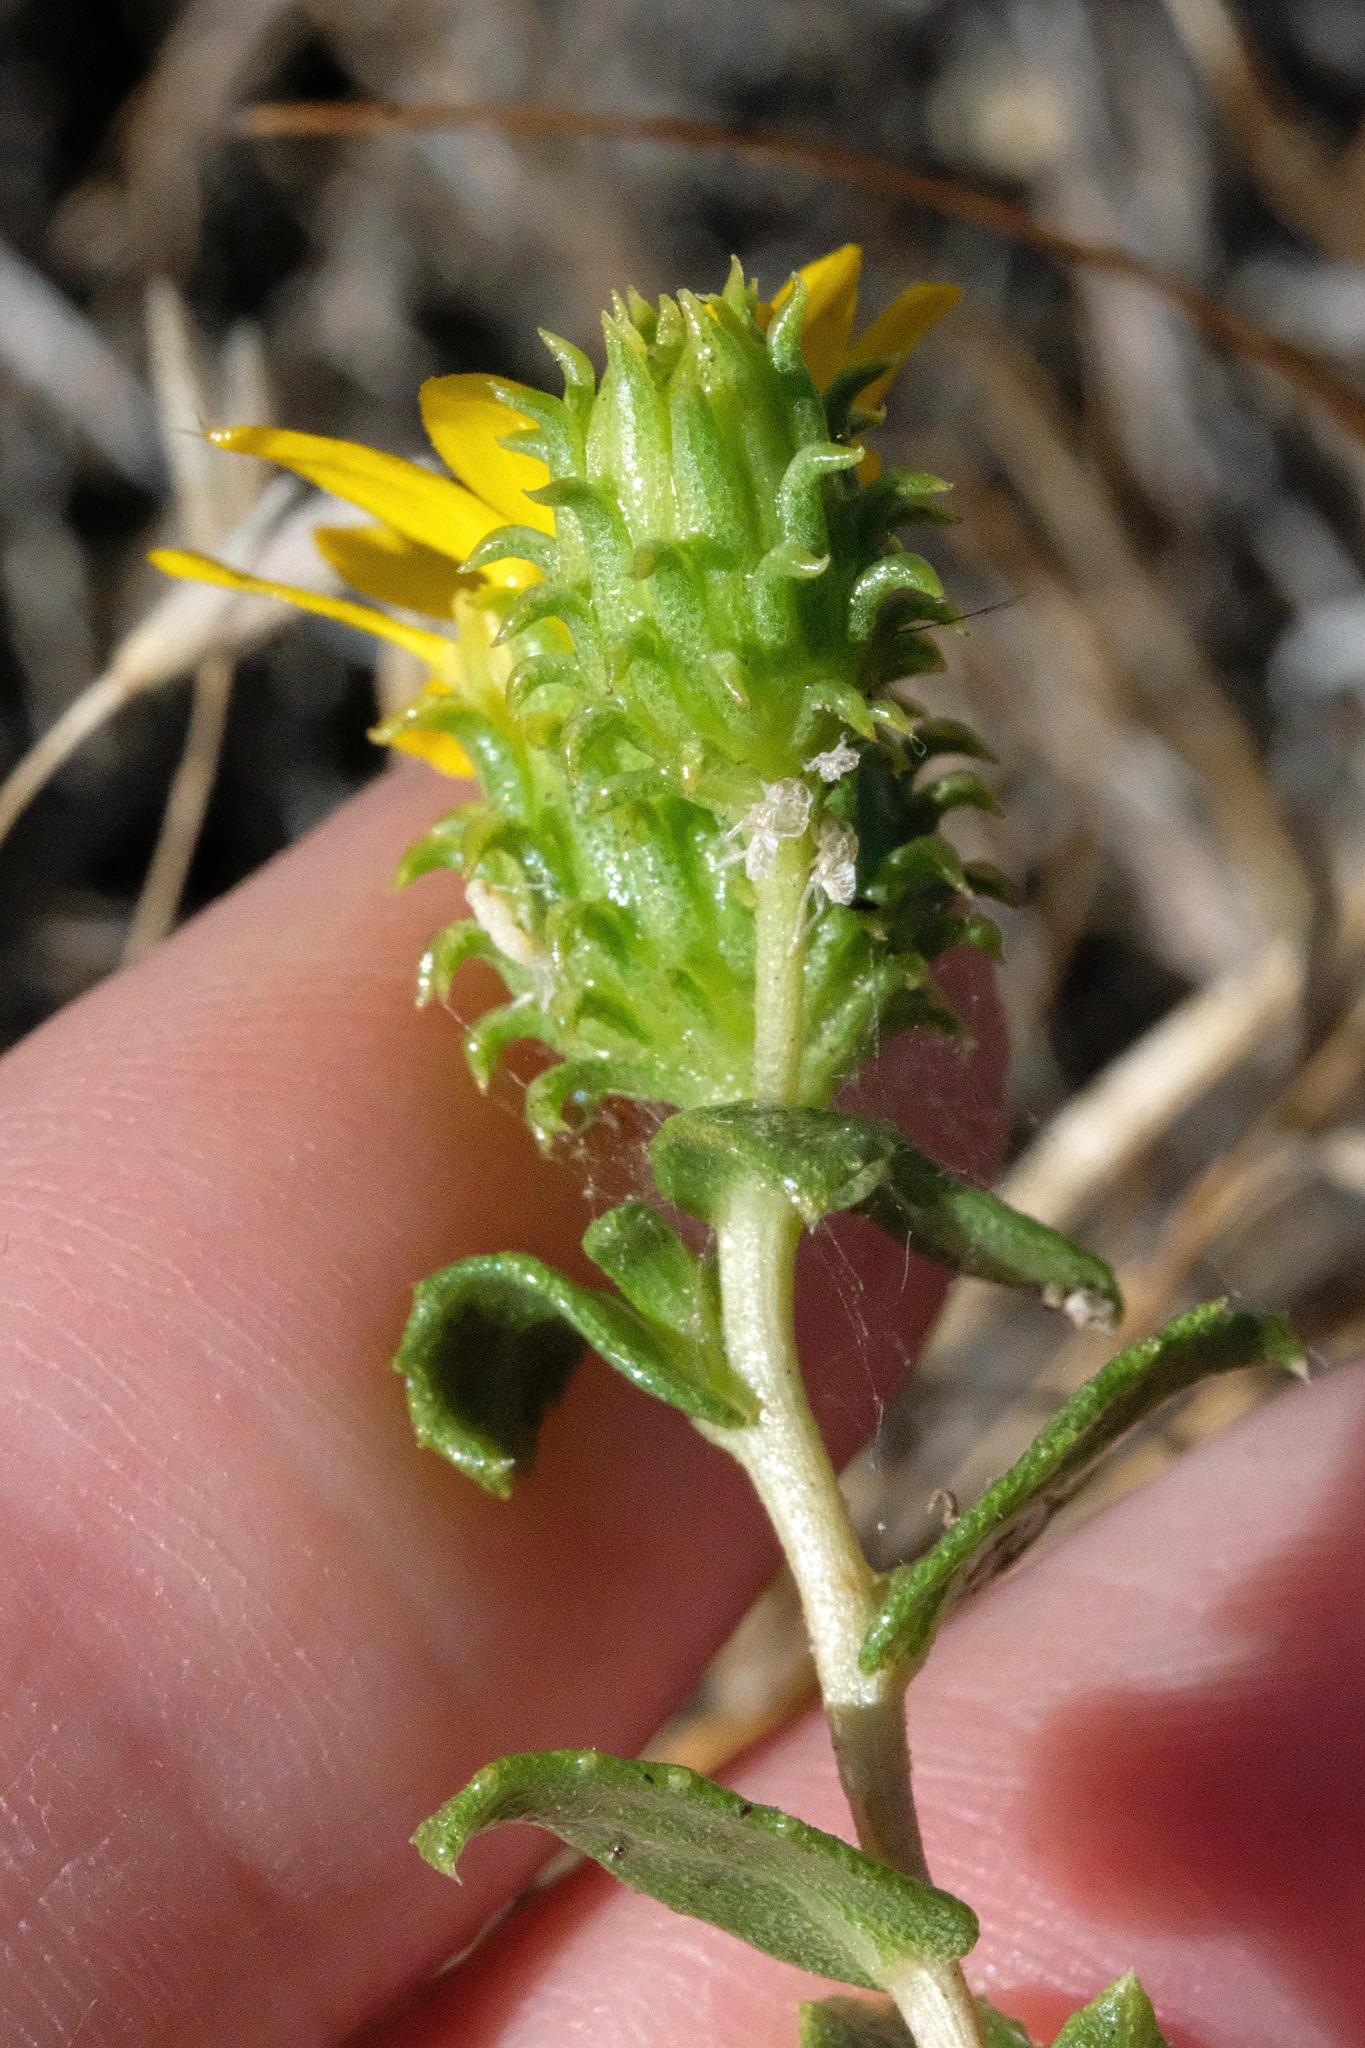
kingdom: Plantae
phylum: Tracheophyta
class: Magnoliopsida
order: Asterales
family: Asteraceae
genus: Grindelia
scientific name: Grindelia hirsutula
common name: Hairy gumweed
